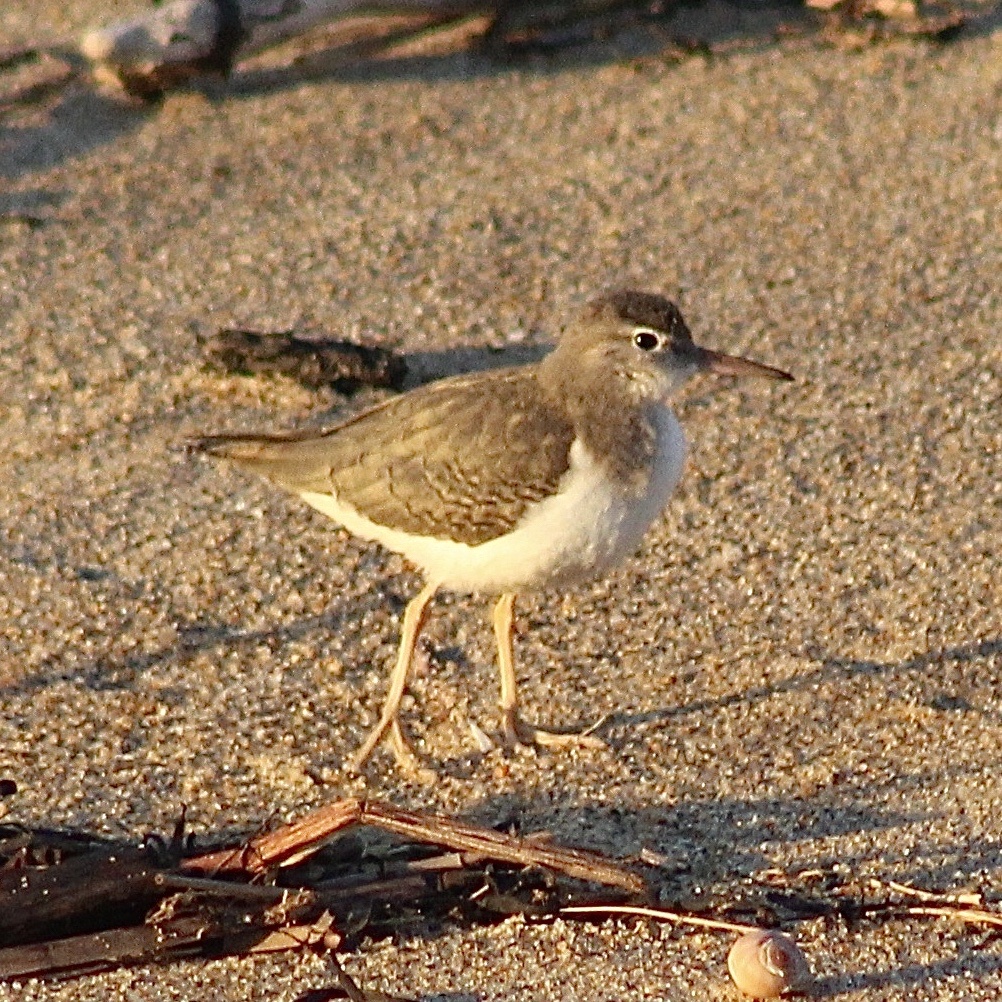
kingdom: Animalia
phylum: Chordata
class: Aves
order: Charadriiformes
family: Scolopacidae
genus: Actitis
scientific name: Actitis macularius
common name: Spotted sandpiper
